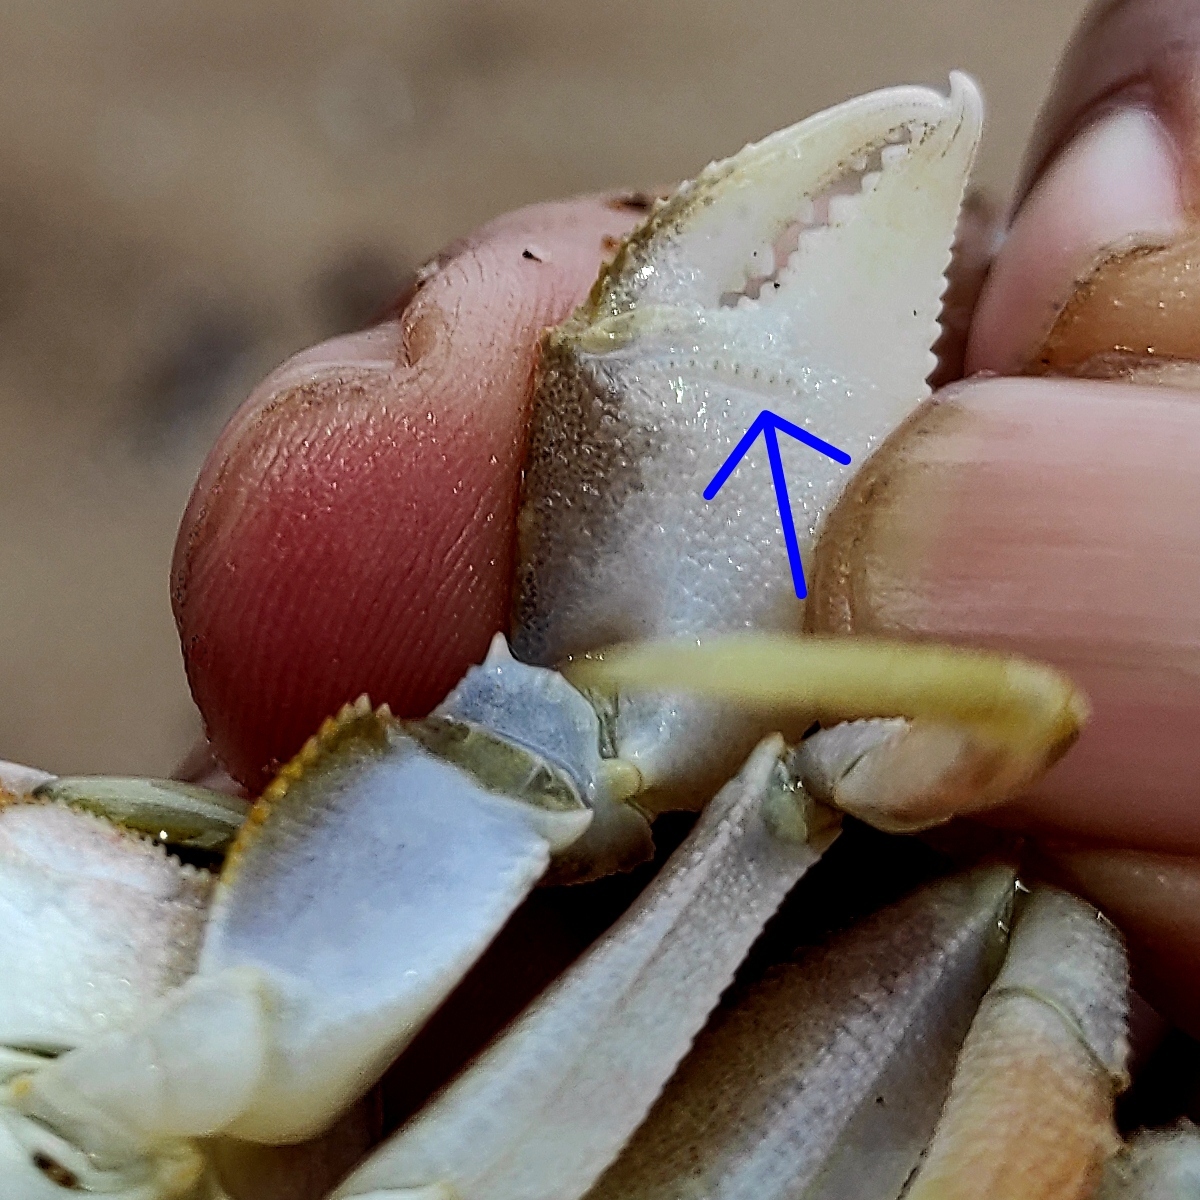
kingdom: Animalia
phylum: Arthropoda
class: Malacostraca
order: Decapoda
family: Ocypodidae
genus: Ocypode
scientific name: Ocypode kuhlii
